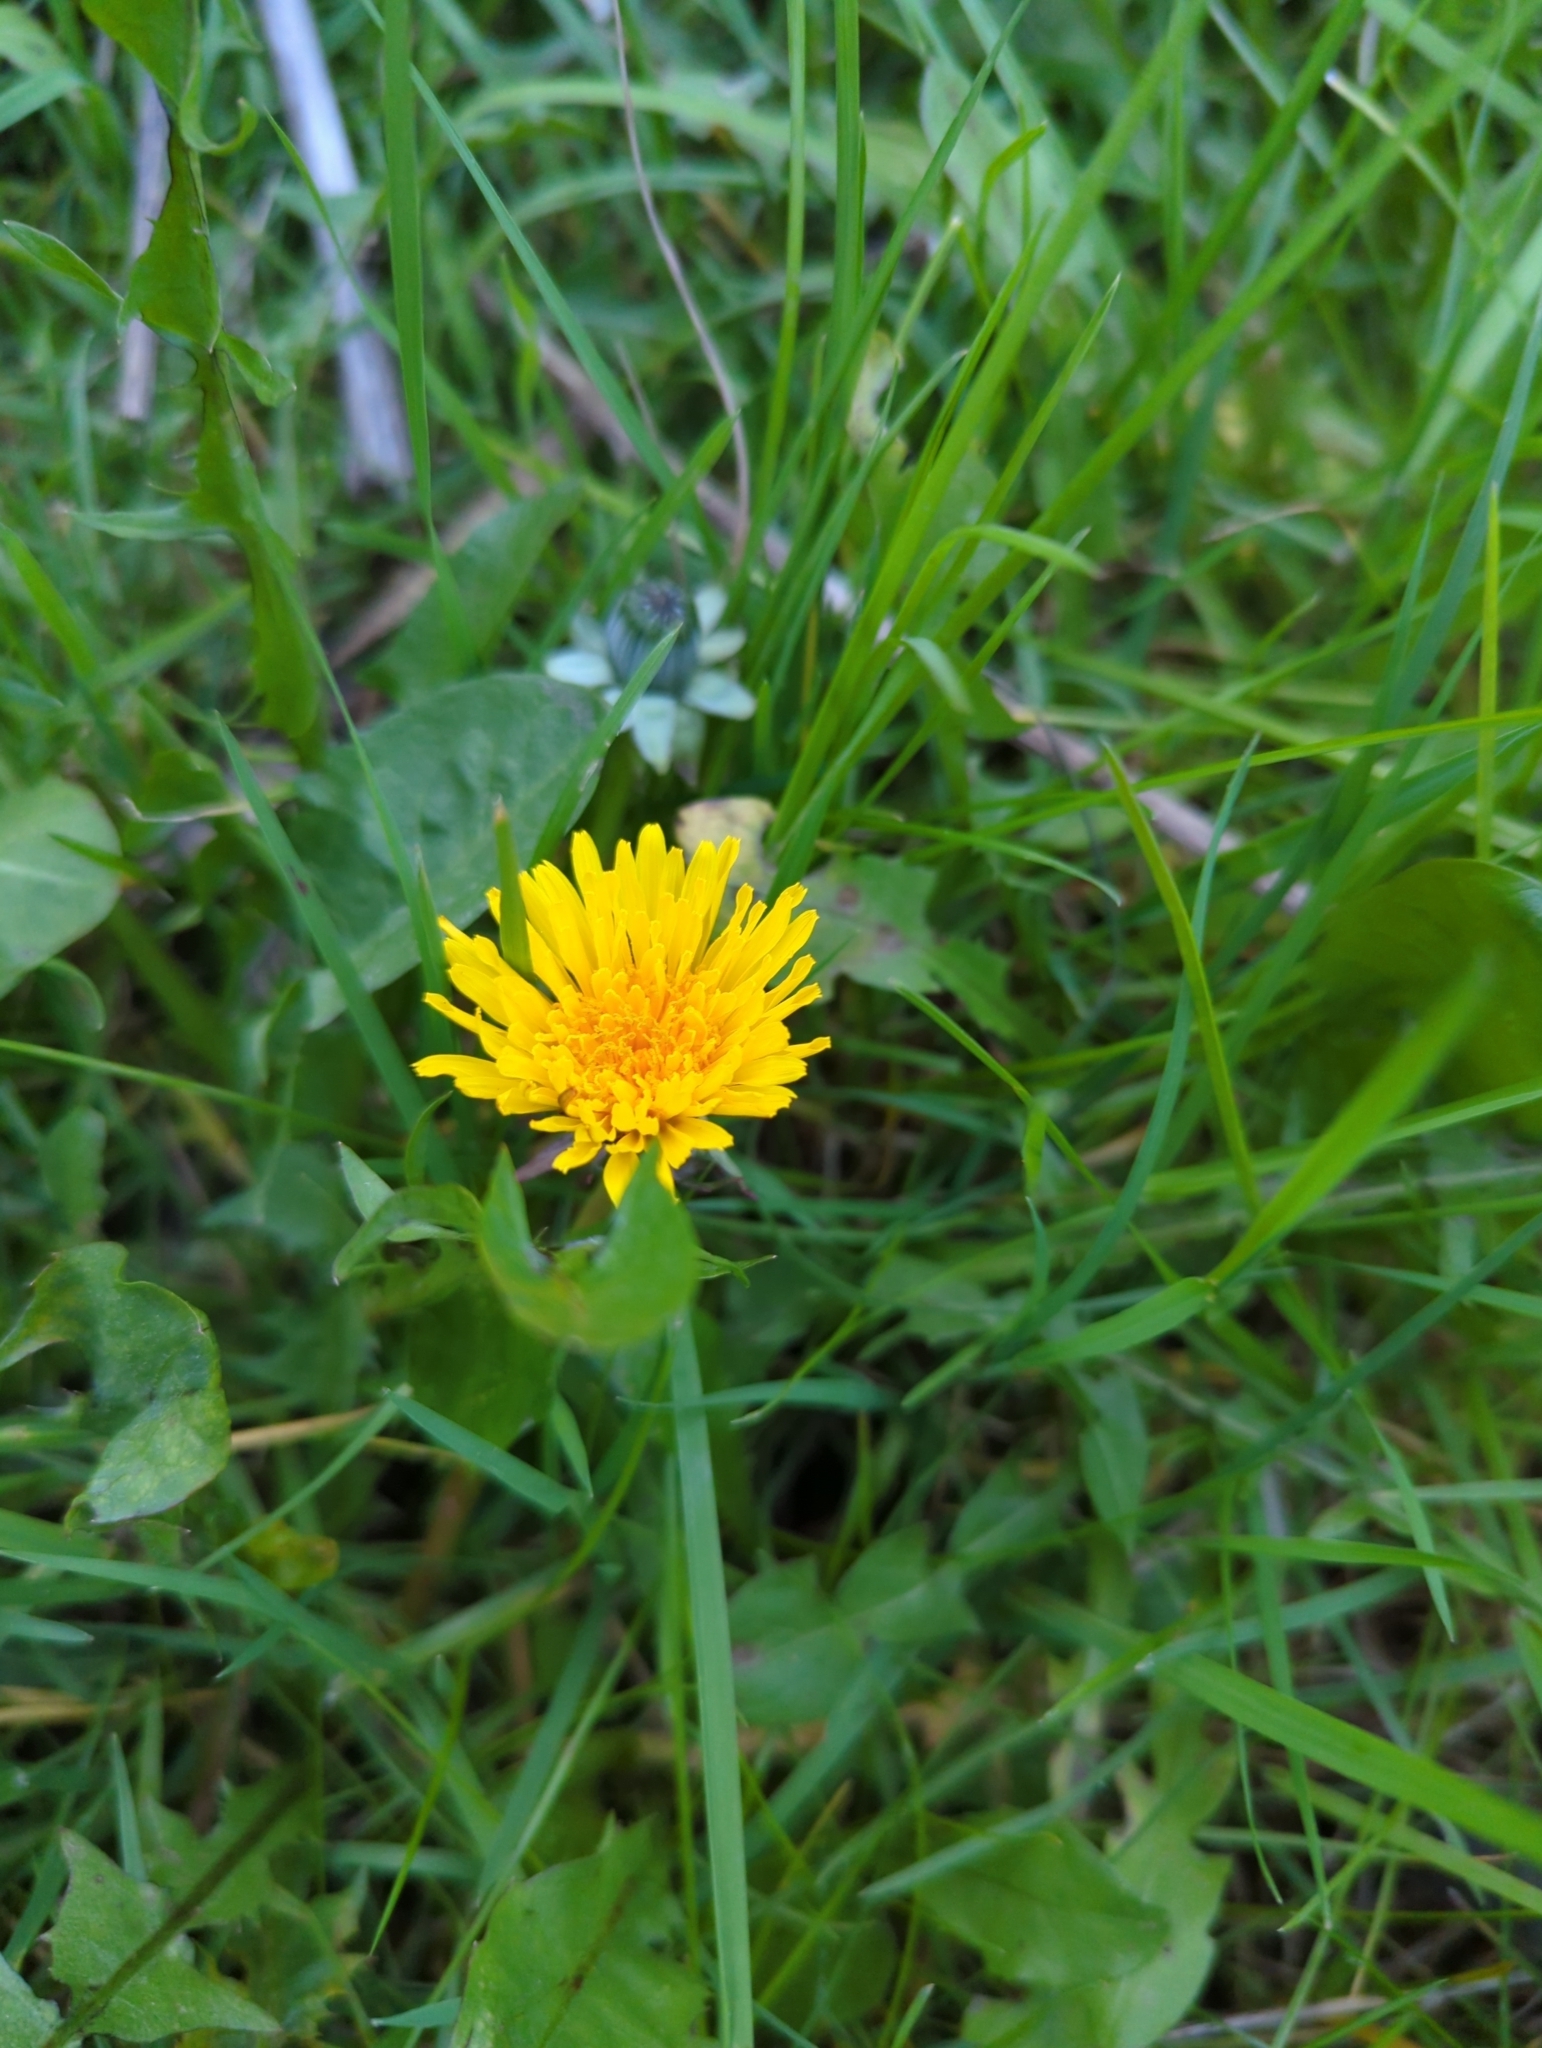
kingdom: Plantae
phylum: Tracheophyta
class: Magnoliopsida
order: Asterales
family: Asteraceae
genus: Taraxacum
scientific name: Taraxacum officinale
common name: Common dandelion
